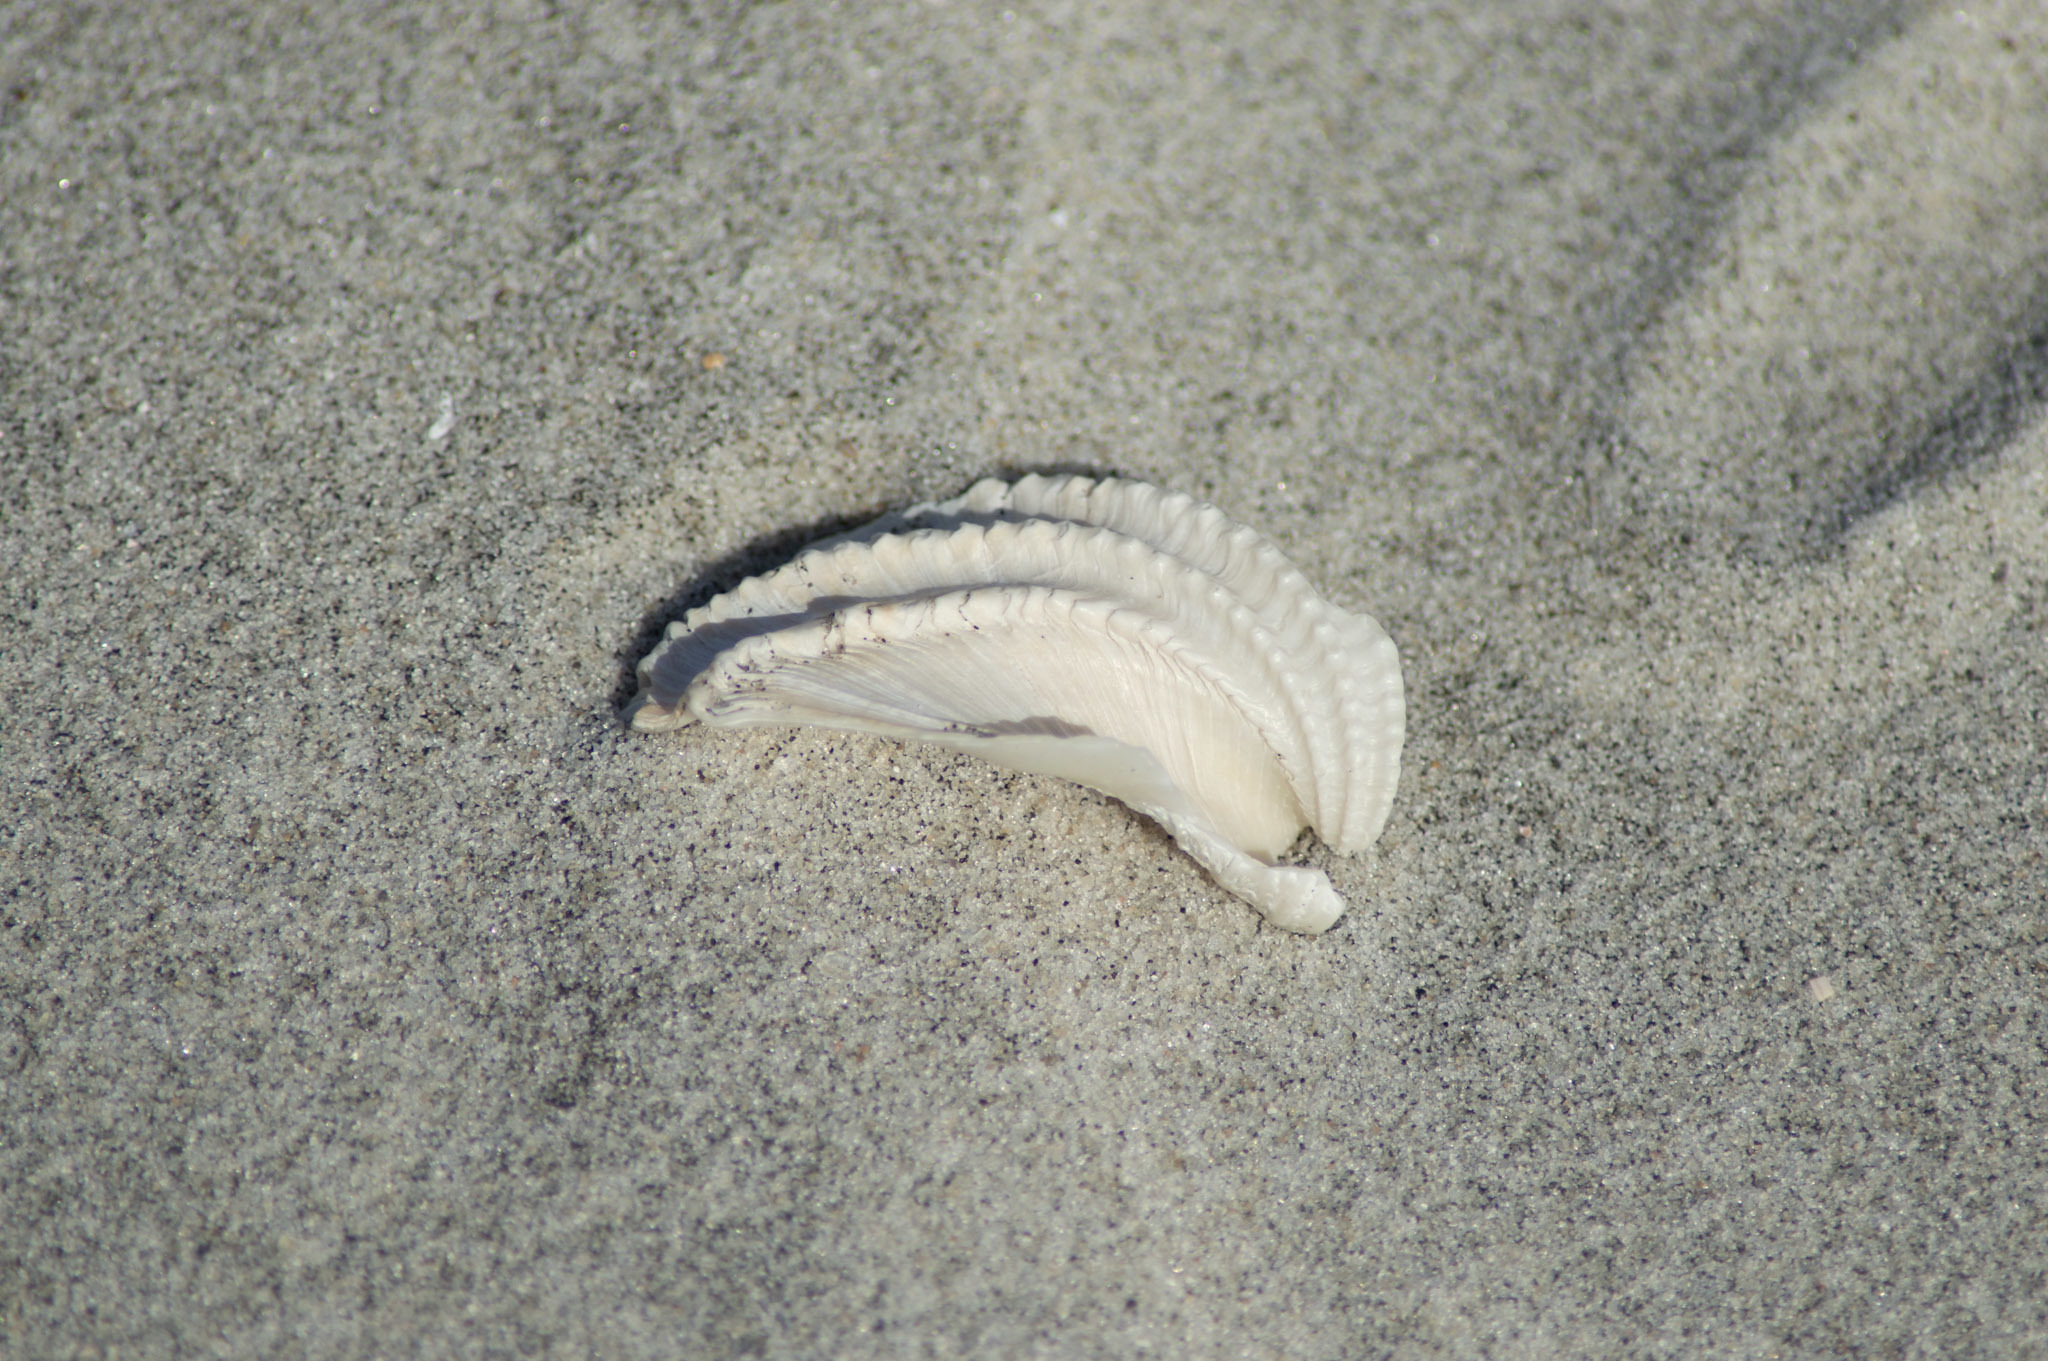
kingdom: Animalia
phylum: Mollusca
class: Bivalvia
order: Myida
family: Pholadidae
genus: Cyrtopleura
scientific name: Cyrtopleura costata
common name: Angel wing
